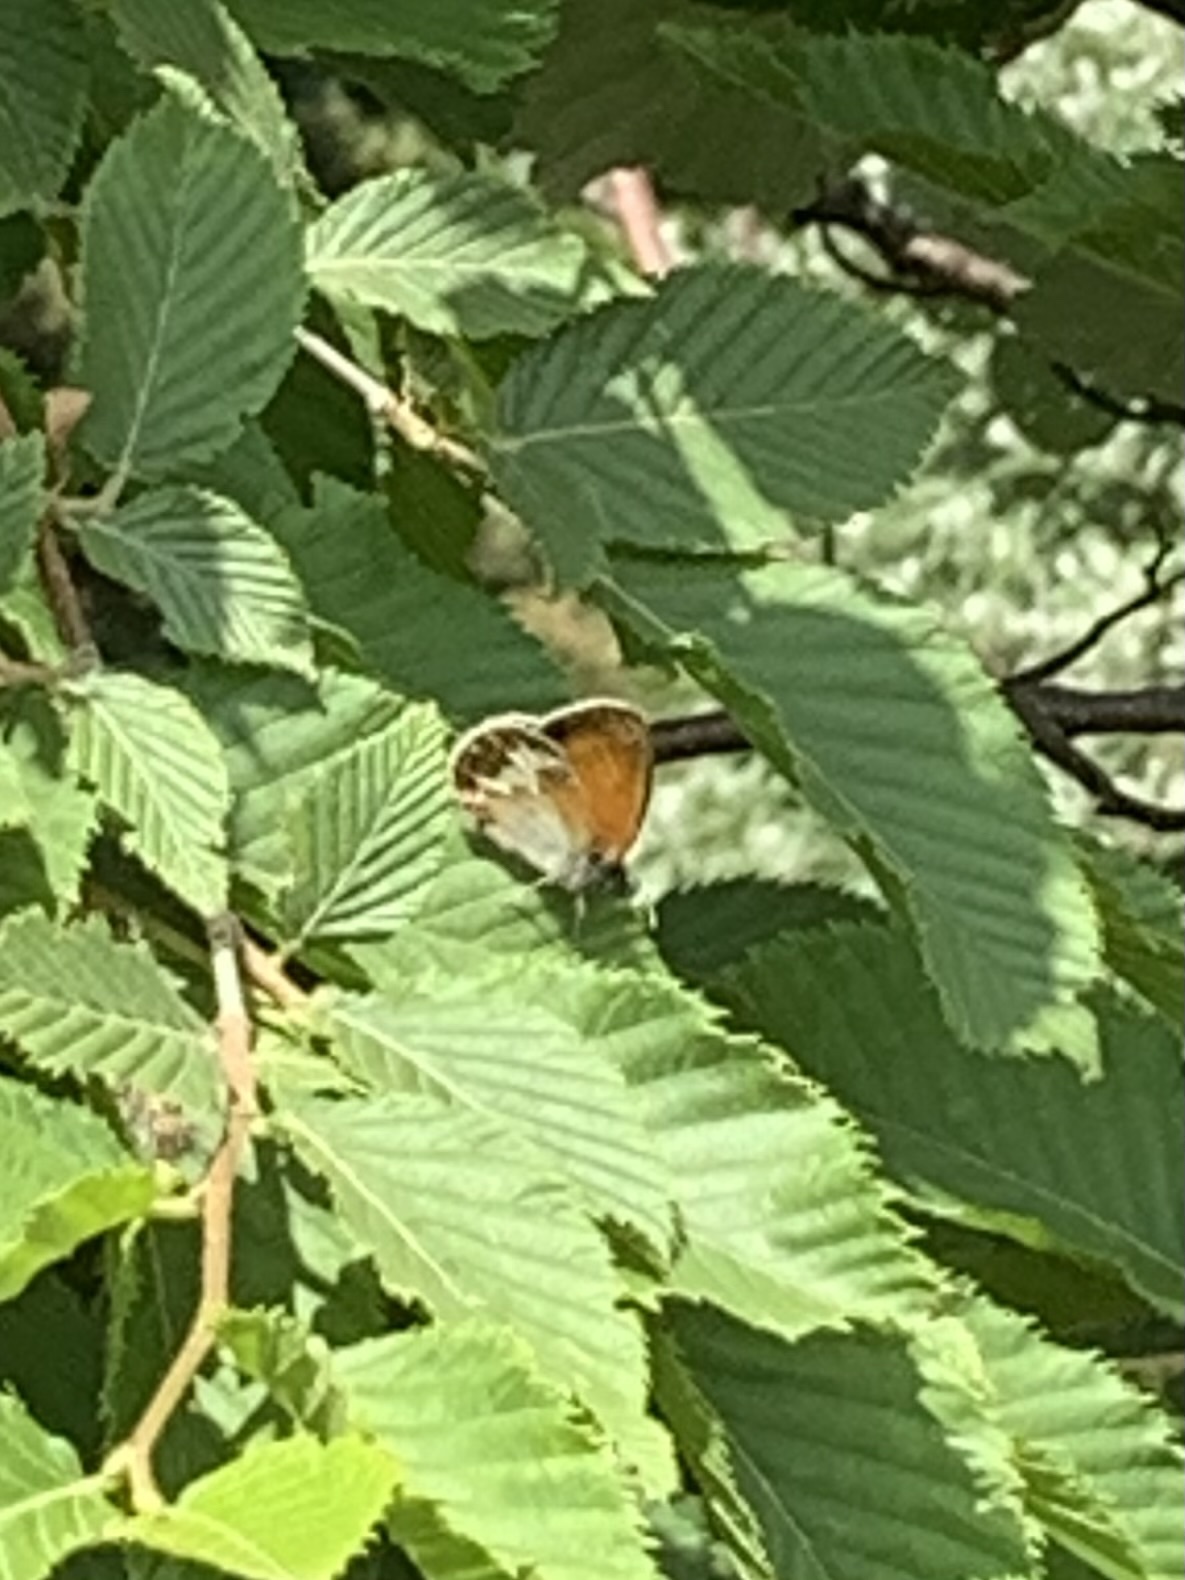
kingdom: Animalia
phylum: Arthropoda
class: Insecta
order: Lepidoptera
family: Nymphalidae
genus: Coenonympha
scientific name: Coenonympha arcania
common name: Pearly heath
